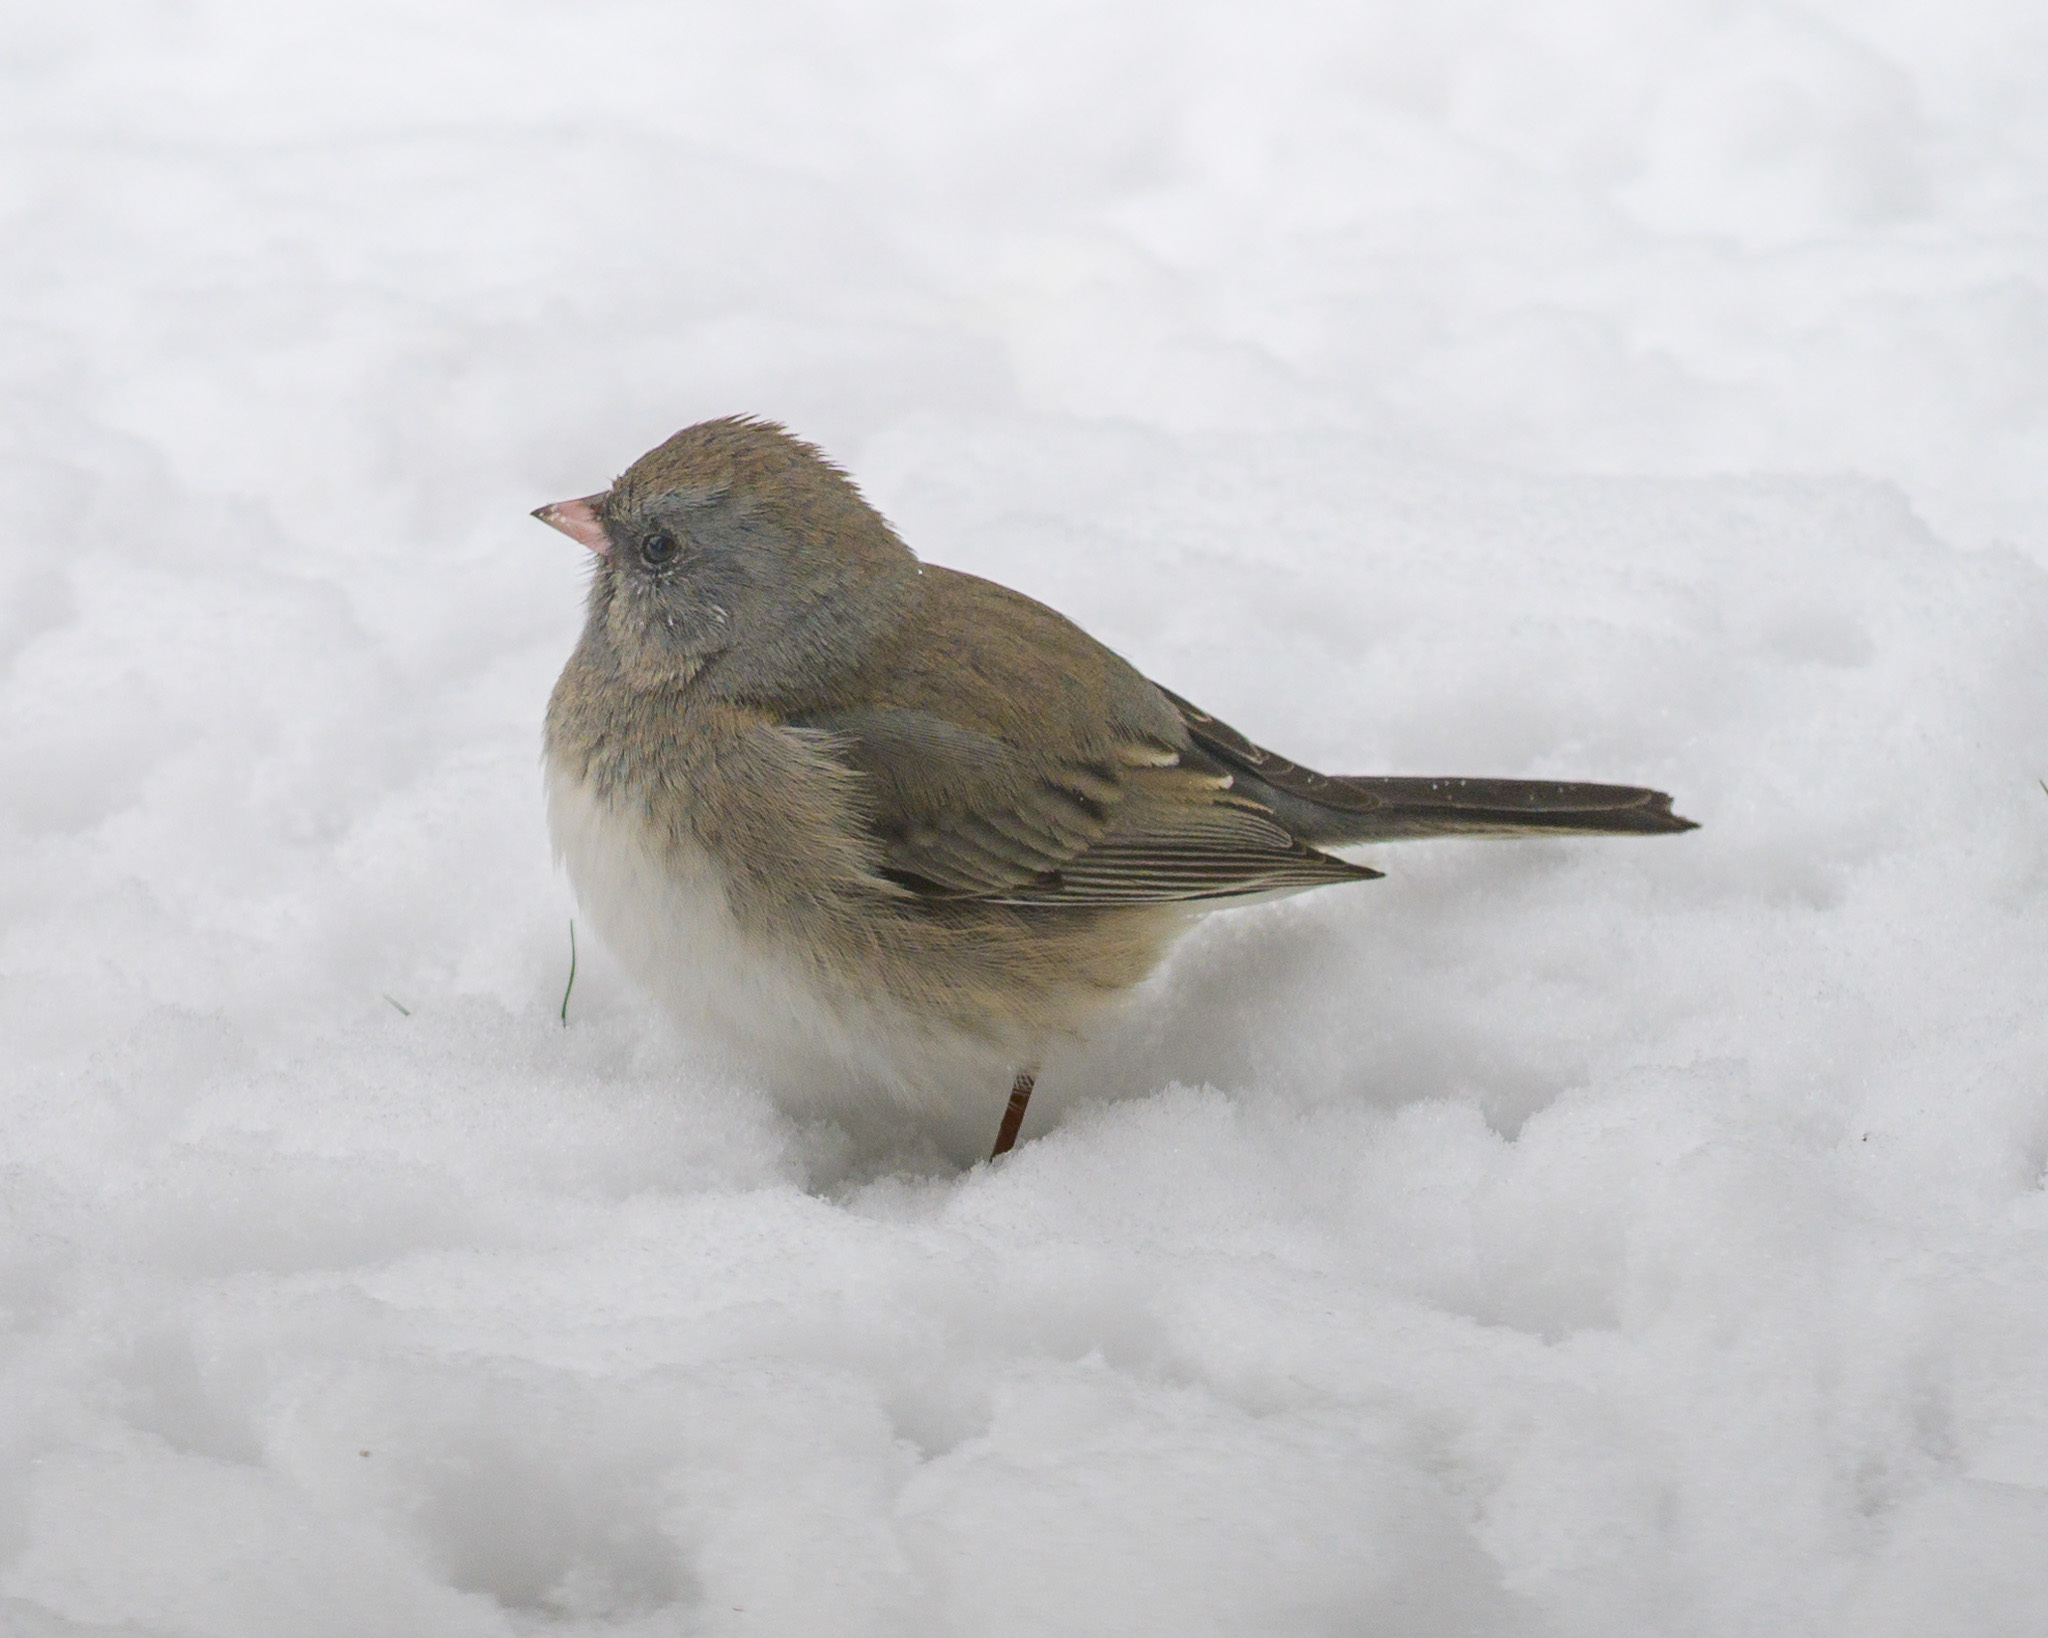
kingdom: Animalia
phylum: Chordata
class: Aves
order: Passeriformes
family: Passerellidae
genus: Junco
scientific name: Junco hyemalis
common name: Dark-eyed junco
